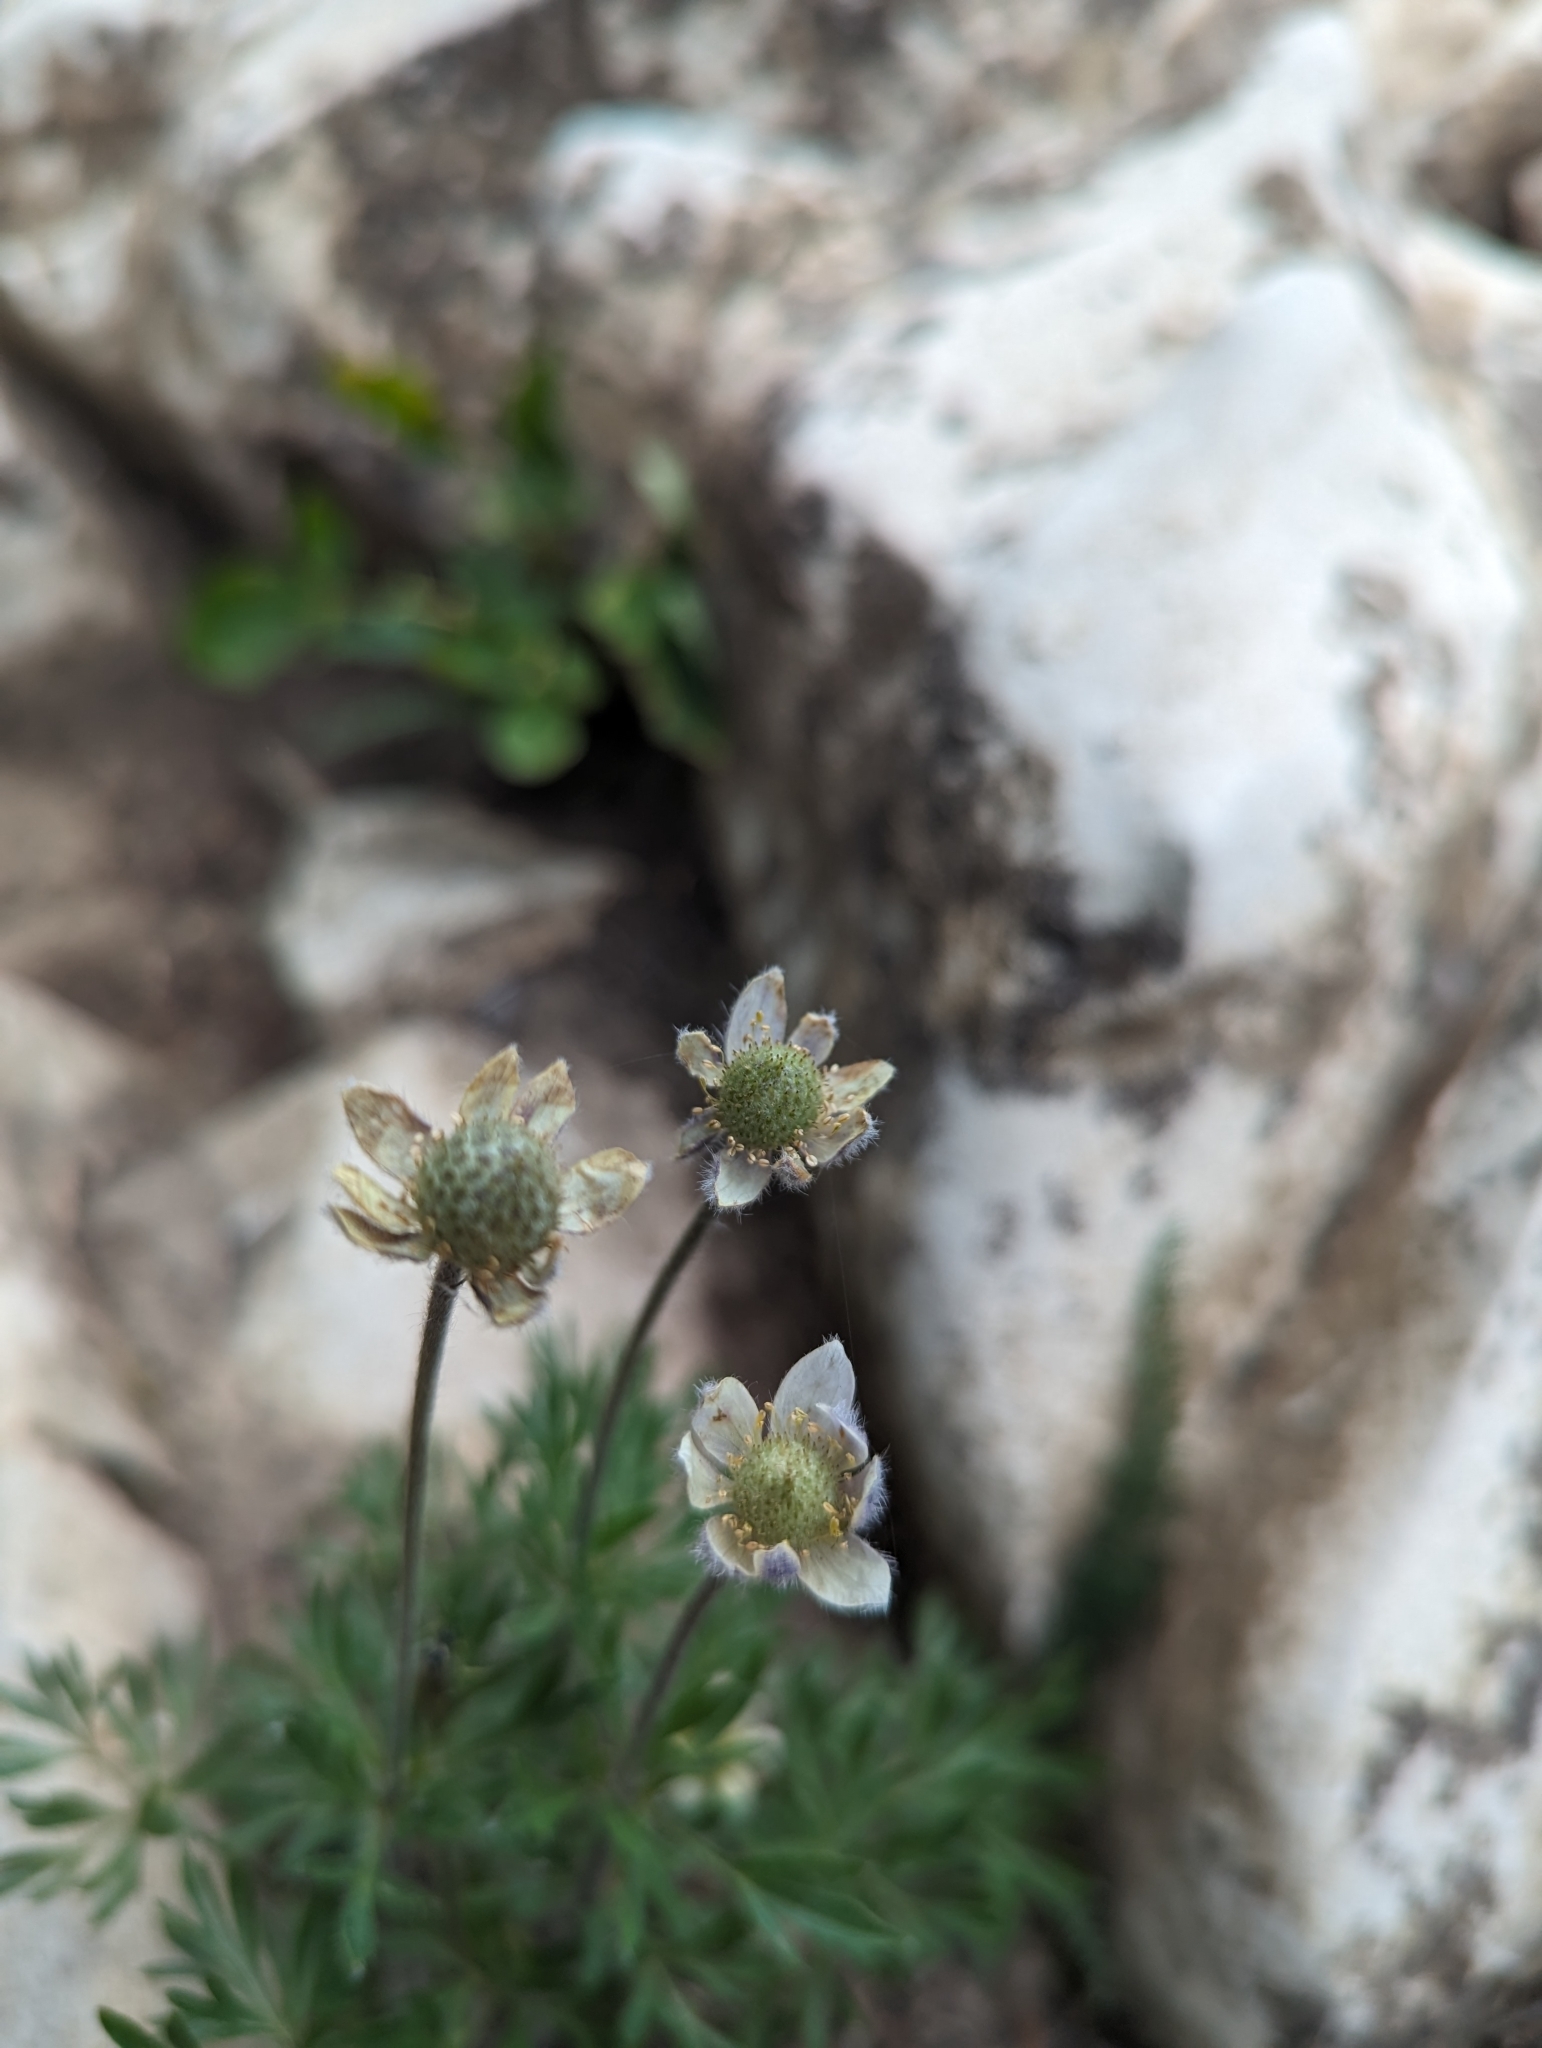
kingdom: Plantae
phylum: Tracheophyta
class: Magnoliopsida
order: Ranunculales
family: Ranunculaceae
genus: Anemone
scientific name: Anemone multifida
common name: Bird's-foot anemone
